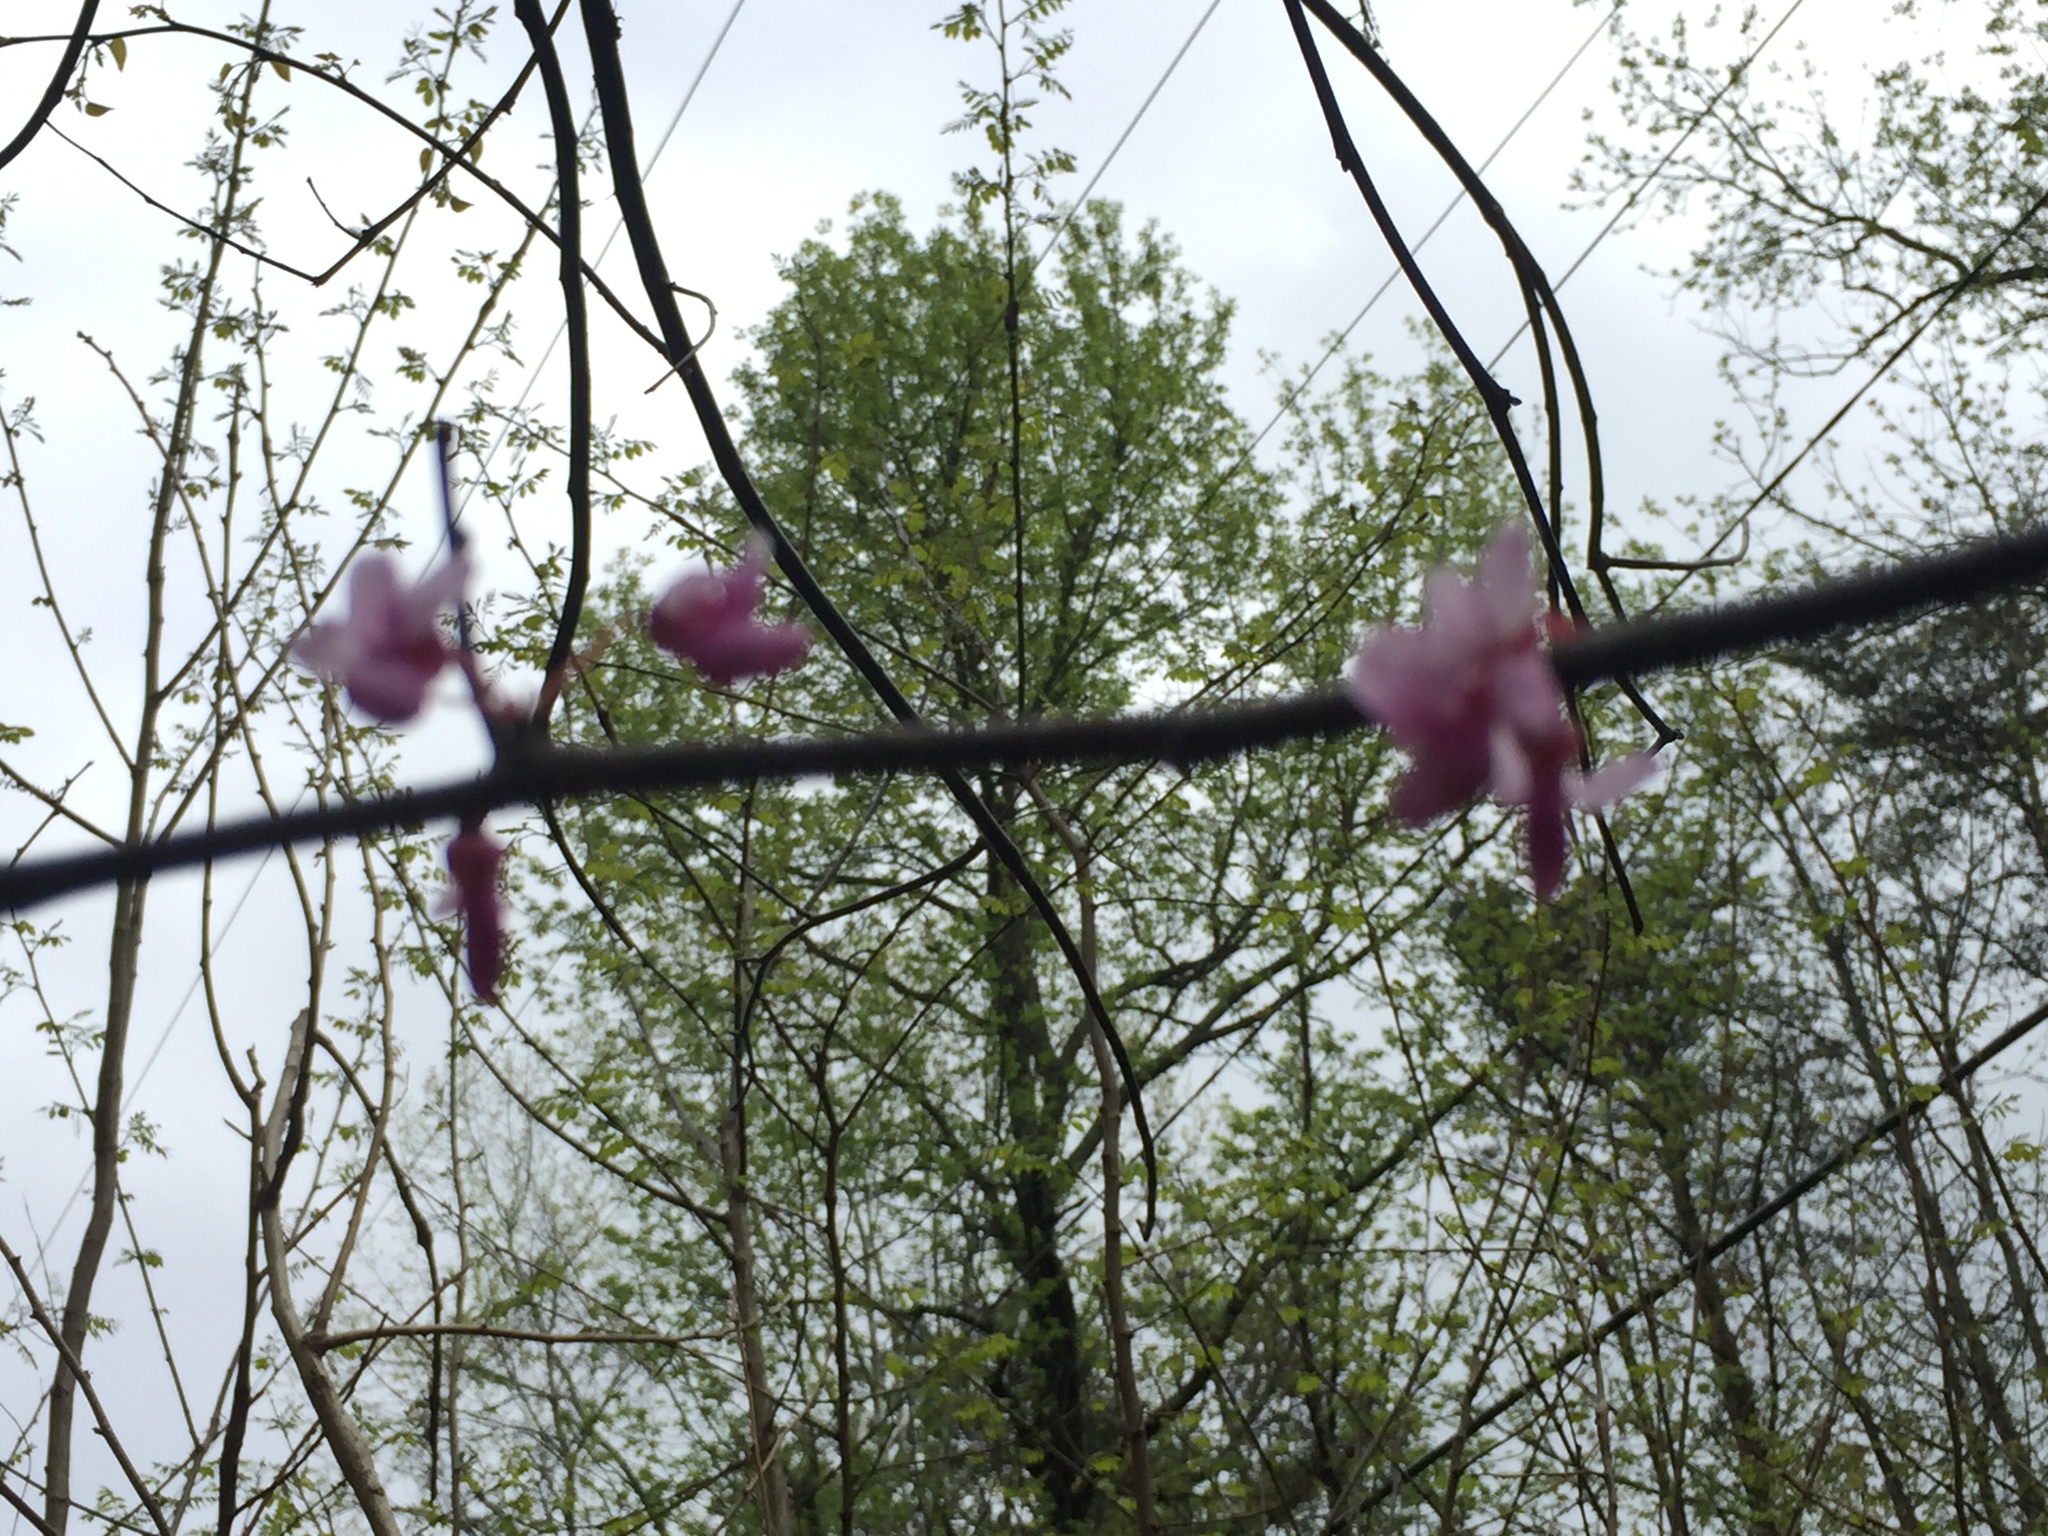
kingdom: Plantae
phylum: Tracheophyta
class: Magnoliopsida
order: Fabales
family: Fabaceae
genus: Cercis
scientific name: Cercis canadensis
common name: Eastern redbud
